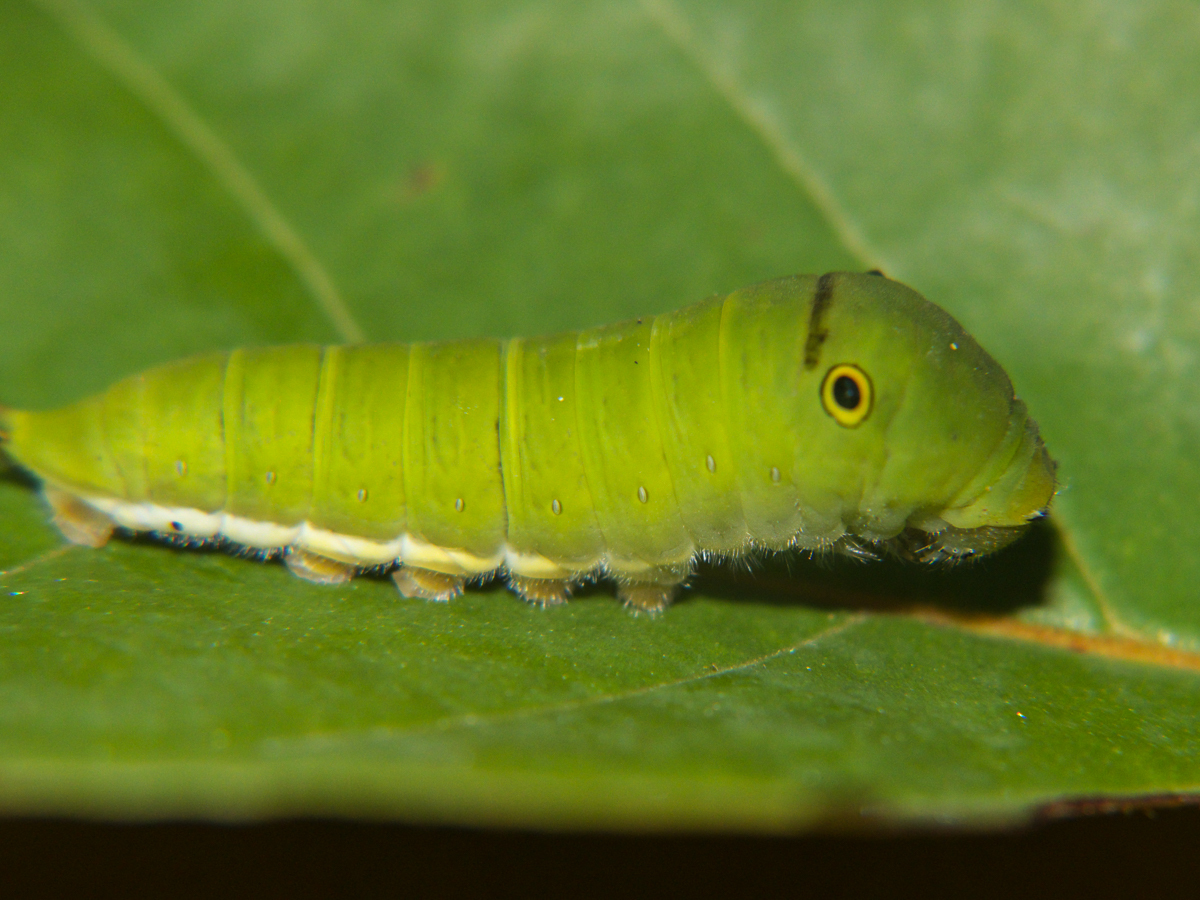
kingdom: Animalia
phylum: Arthropoda
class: Insecta
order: Lepidoptera
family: Papilionidae
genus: Graphium
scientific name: Graphium doson
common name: Common jay
